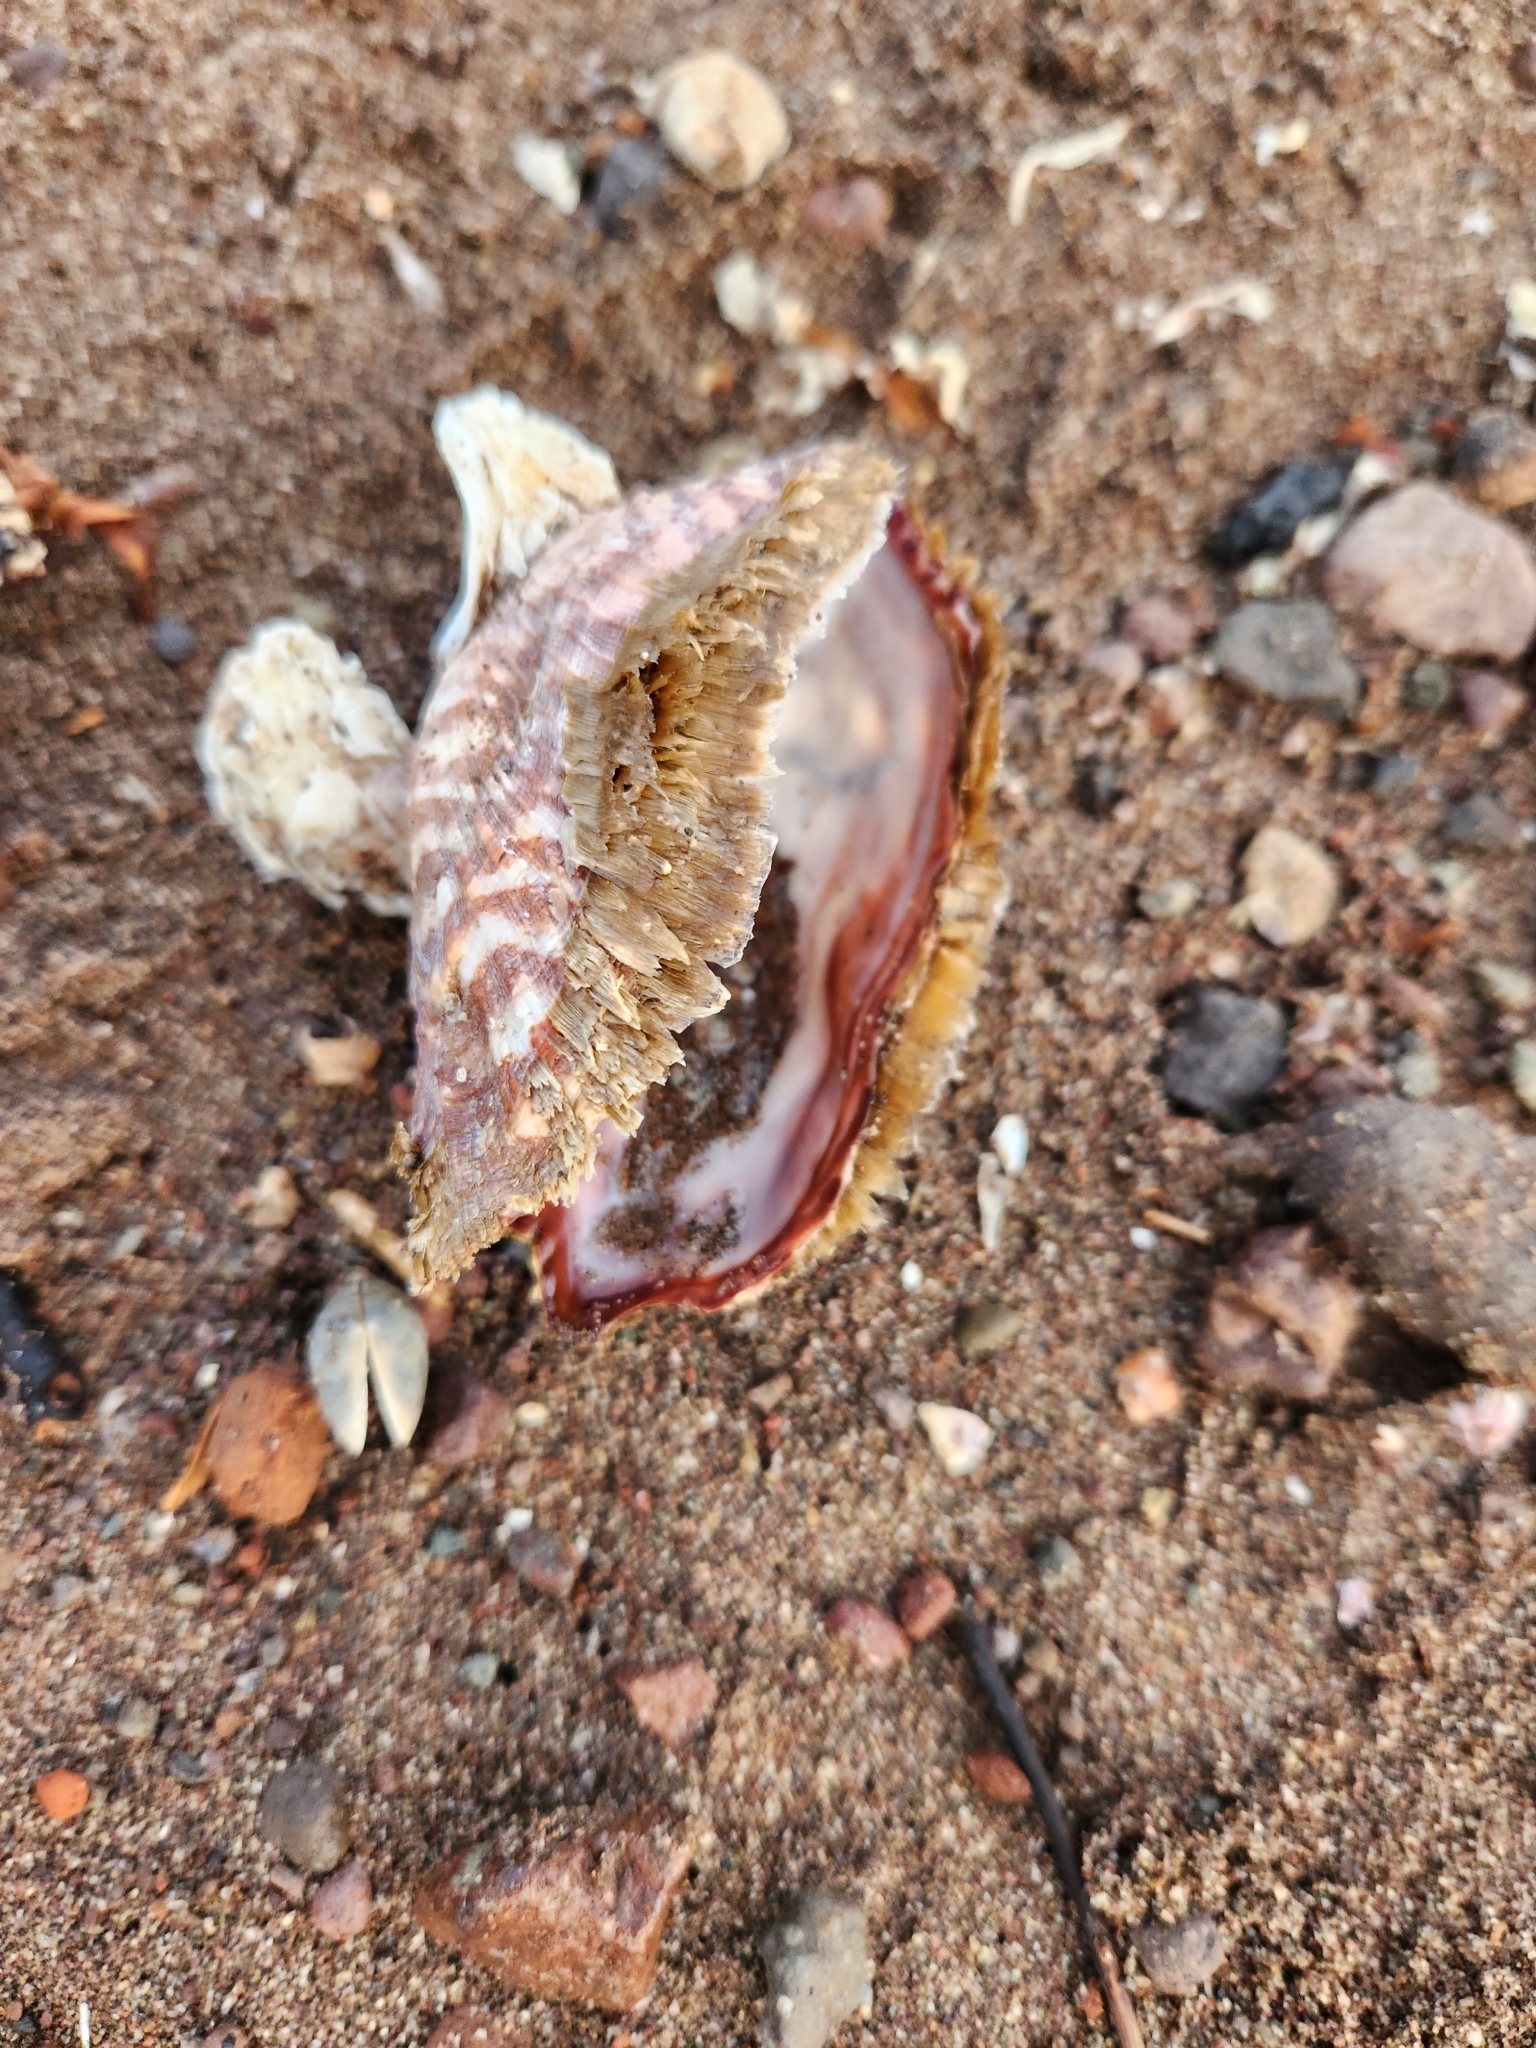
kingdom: Animalia
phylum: Mollusca
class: Bivalvia
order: Arcida
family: Arcidae
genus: Arca
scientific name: Arca pacifica
